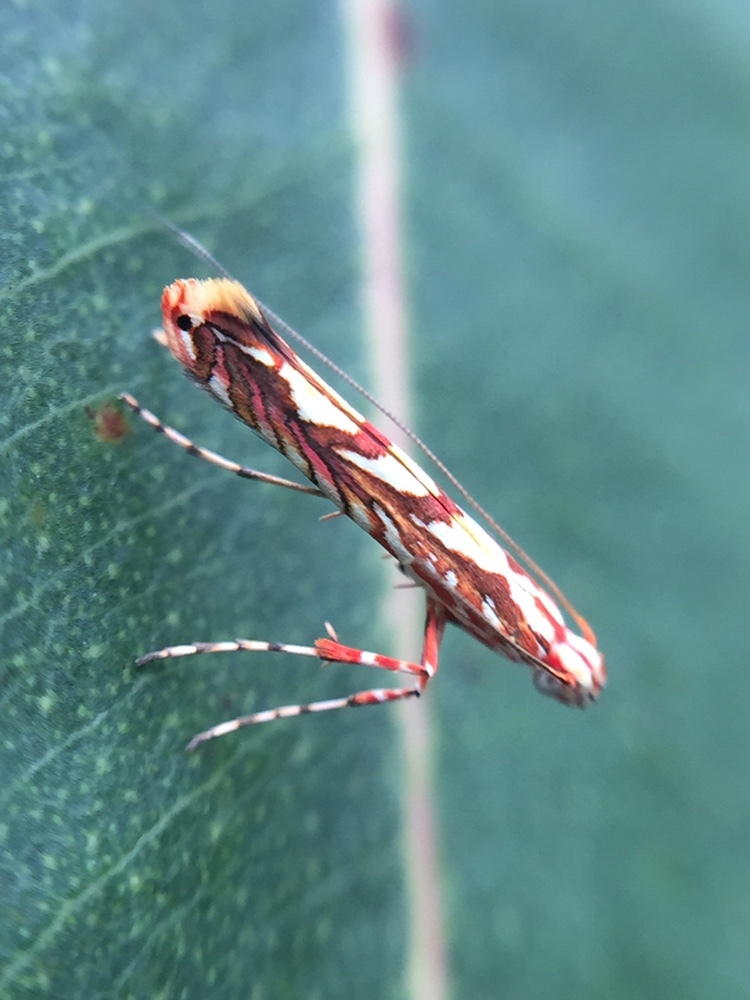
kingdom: Animalia
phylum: Arthropoda
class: Insecta
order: Lepidoptera
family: Gracillariidae
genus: Macarostola
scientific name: Macarostola ida
